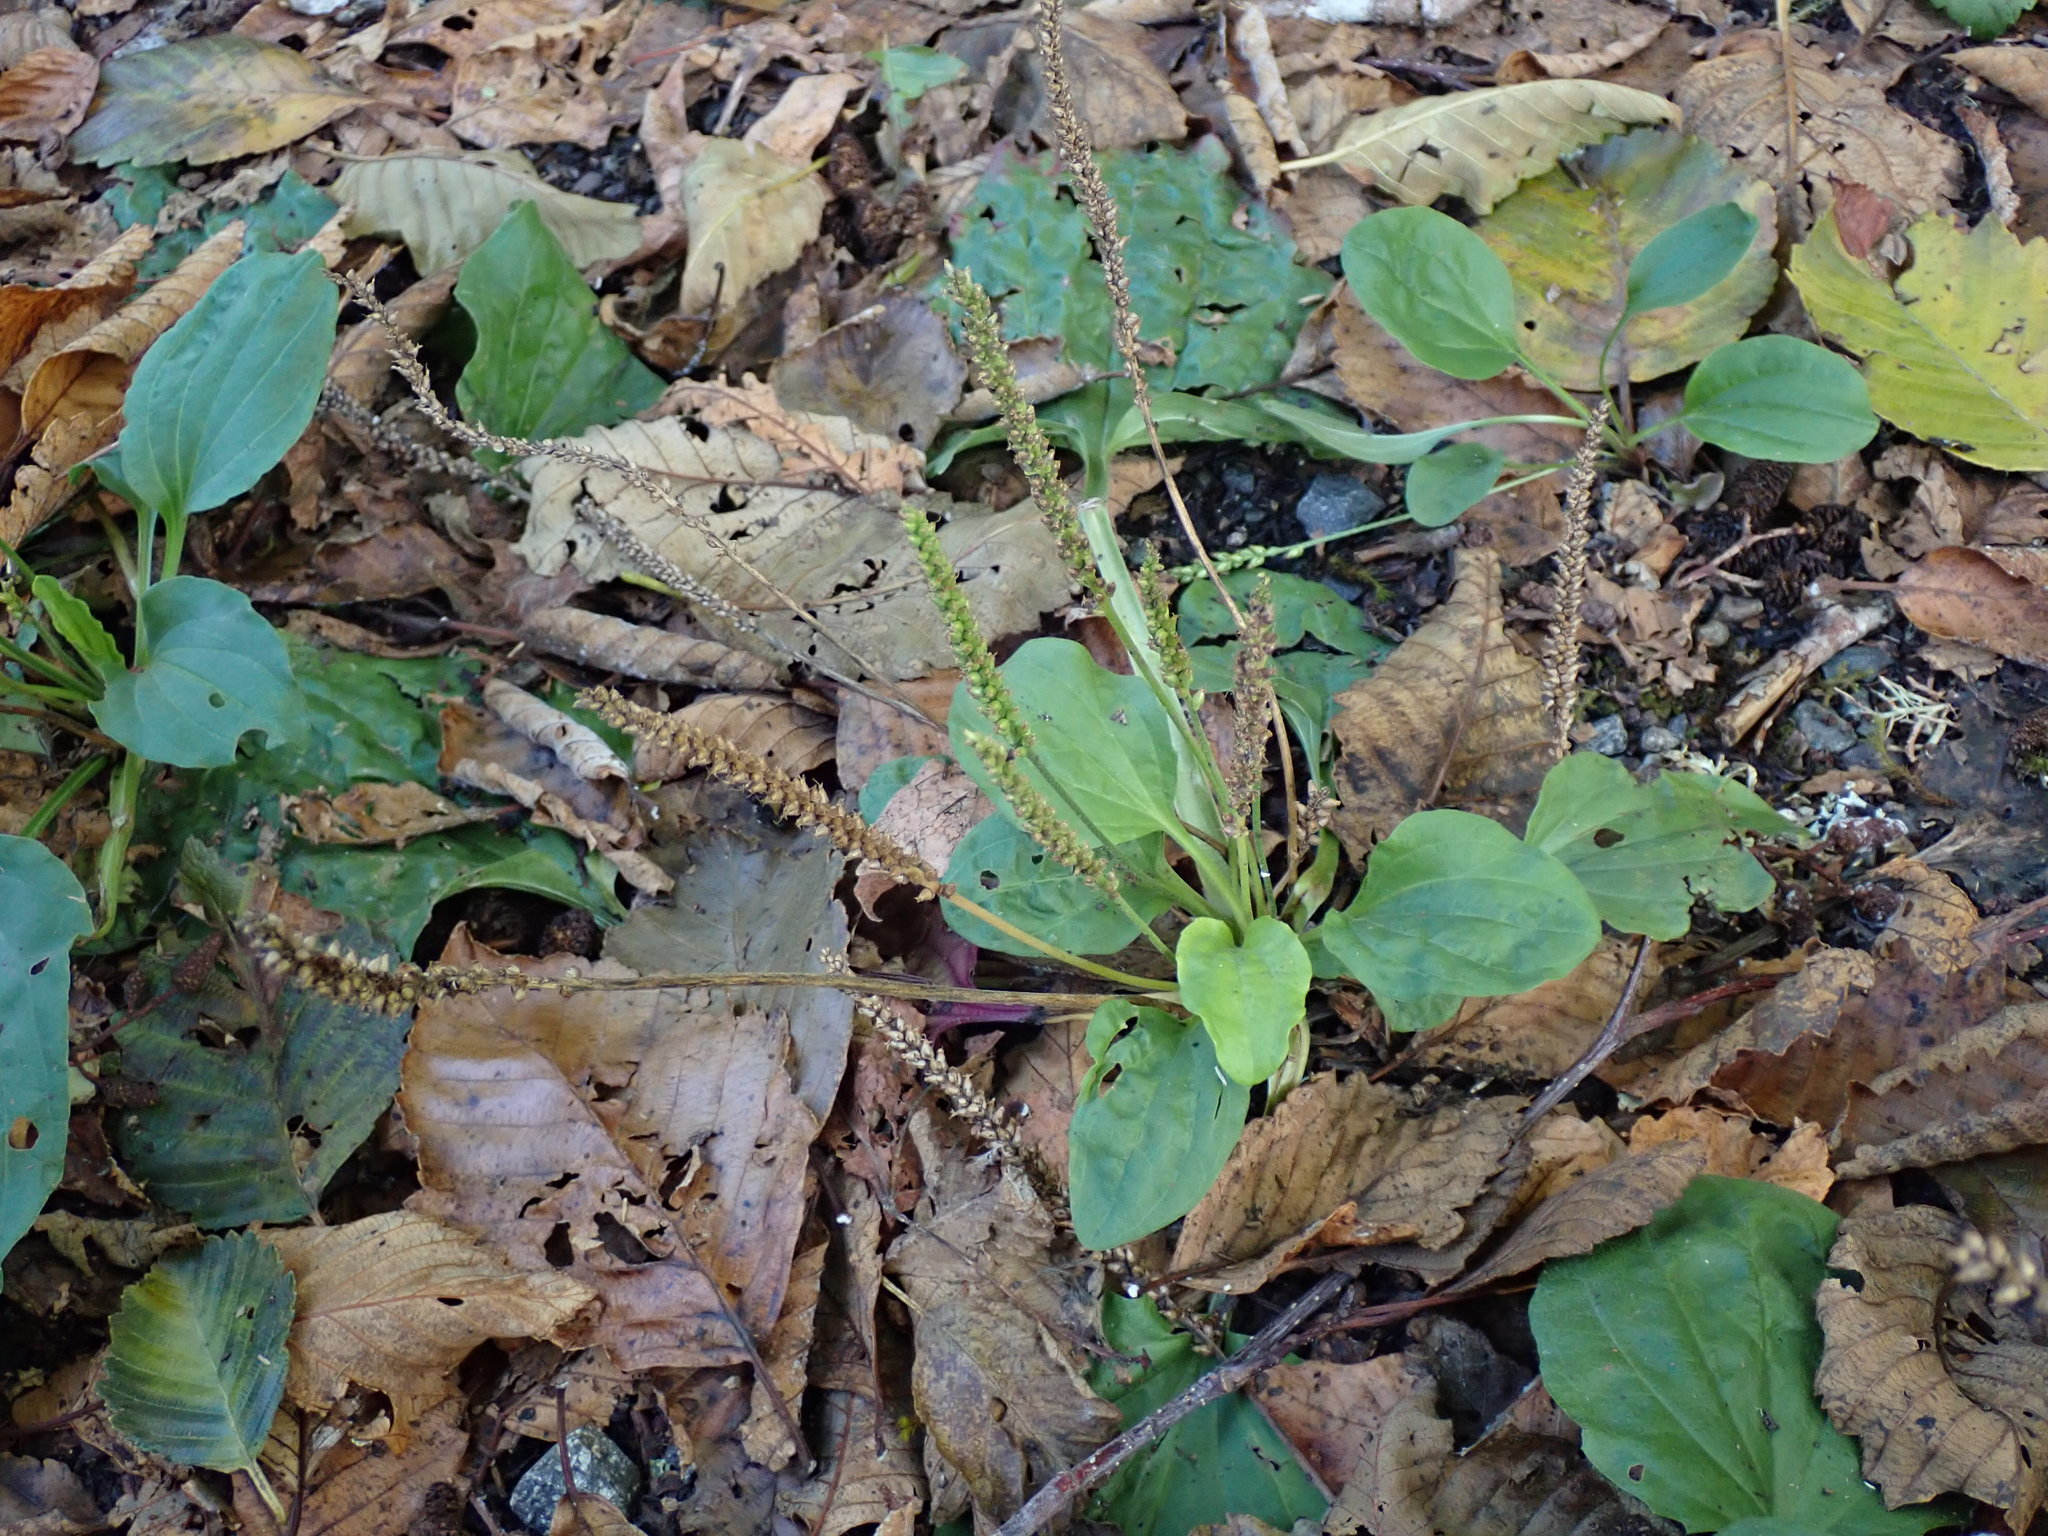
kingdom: Plantae
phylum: Tracheophyta
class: Magnoliopsida
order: Lamiales
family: Plantaginaceae
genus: Plantago
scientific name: Plantago major
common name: Common plantain
